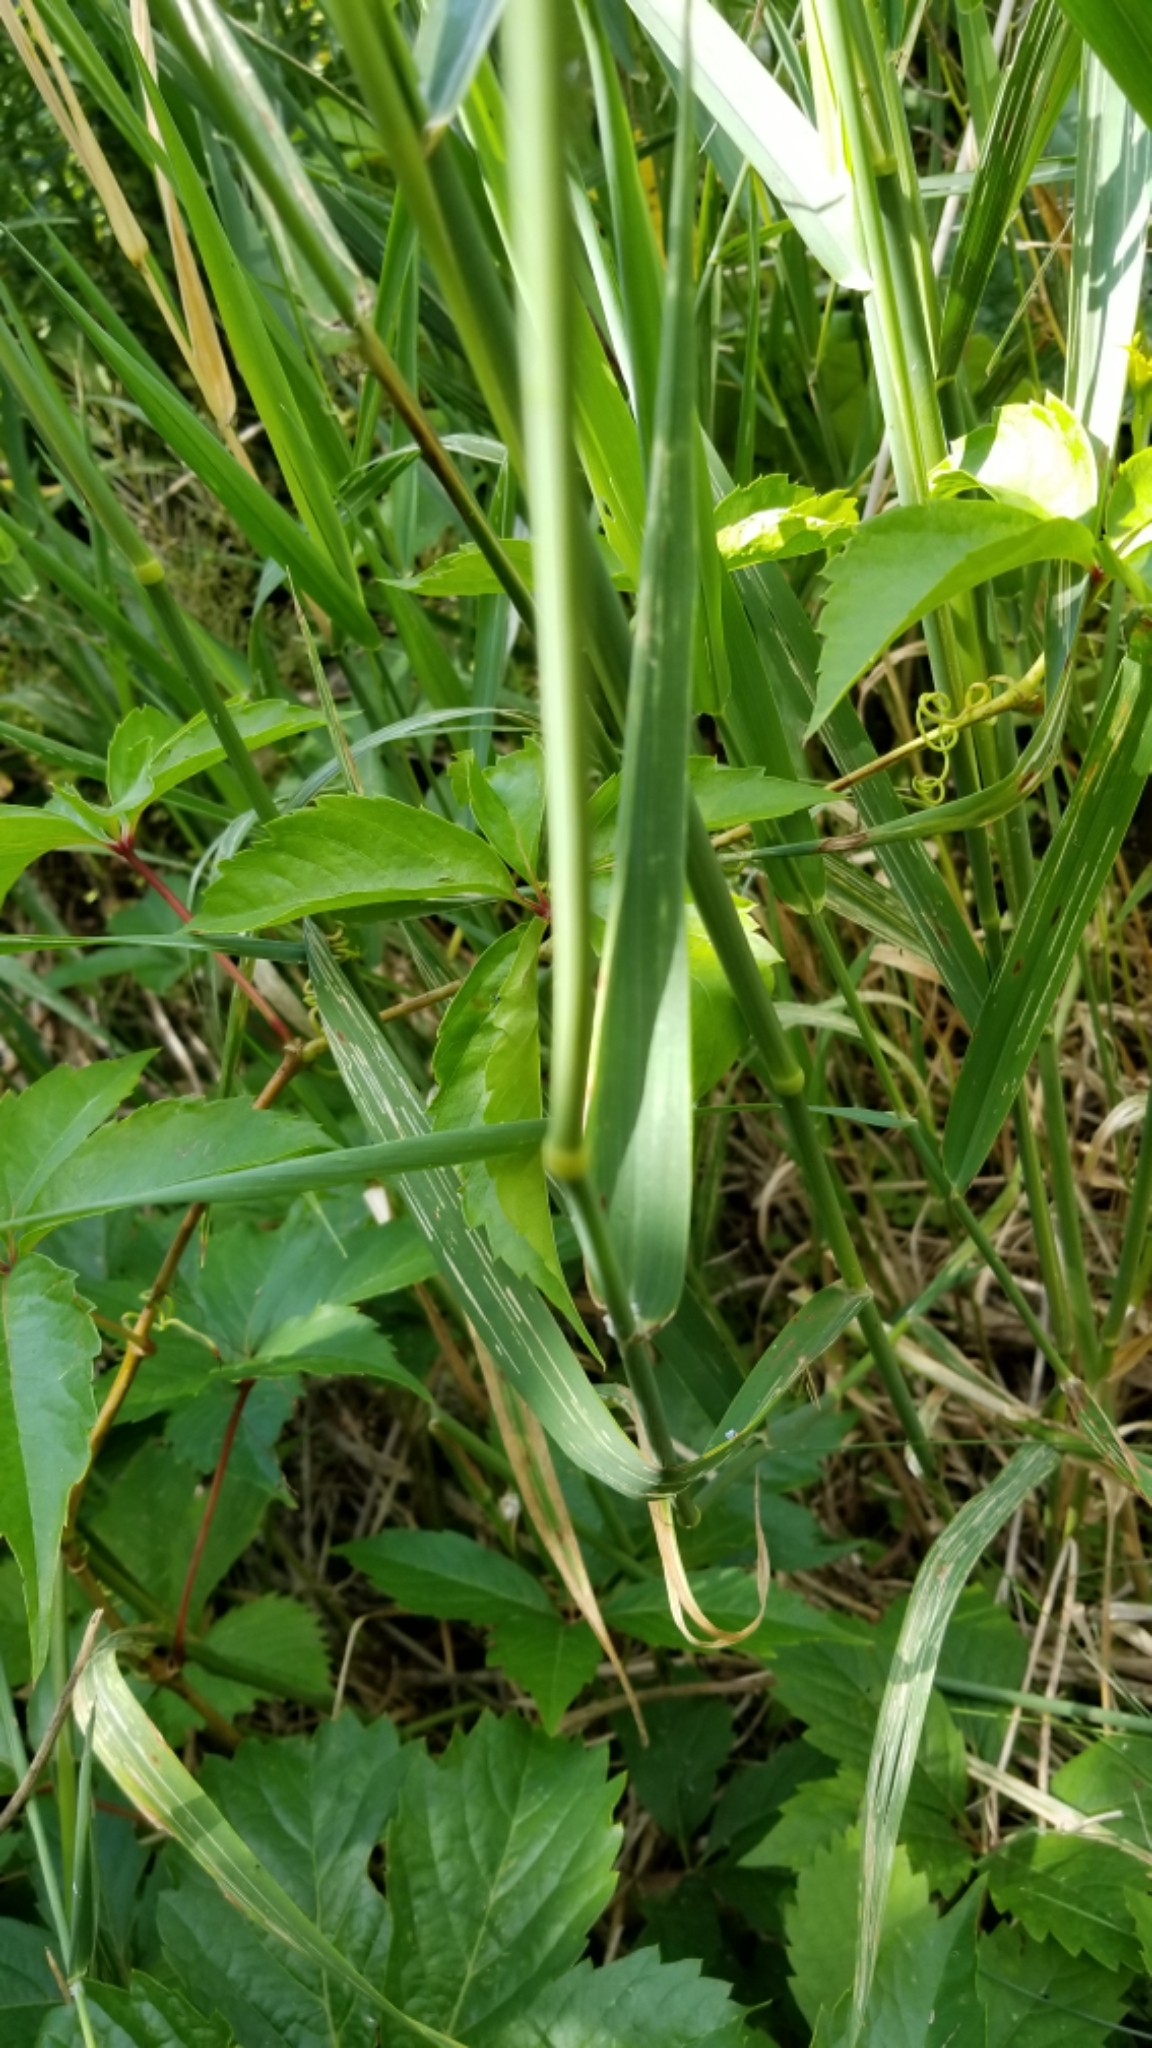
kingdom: Plantae
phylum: Tracheophyta
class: Liliopsida
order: Poales
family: Poaceae
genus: Phalaris
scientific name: Phalaris arundinacea
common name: Reed canary-grass
